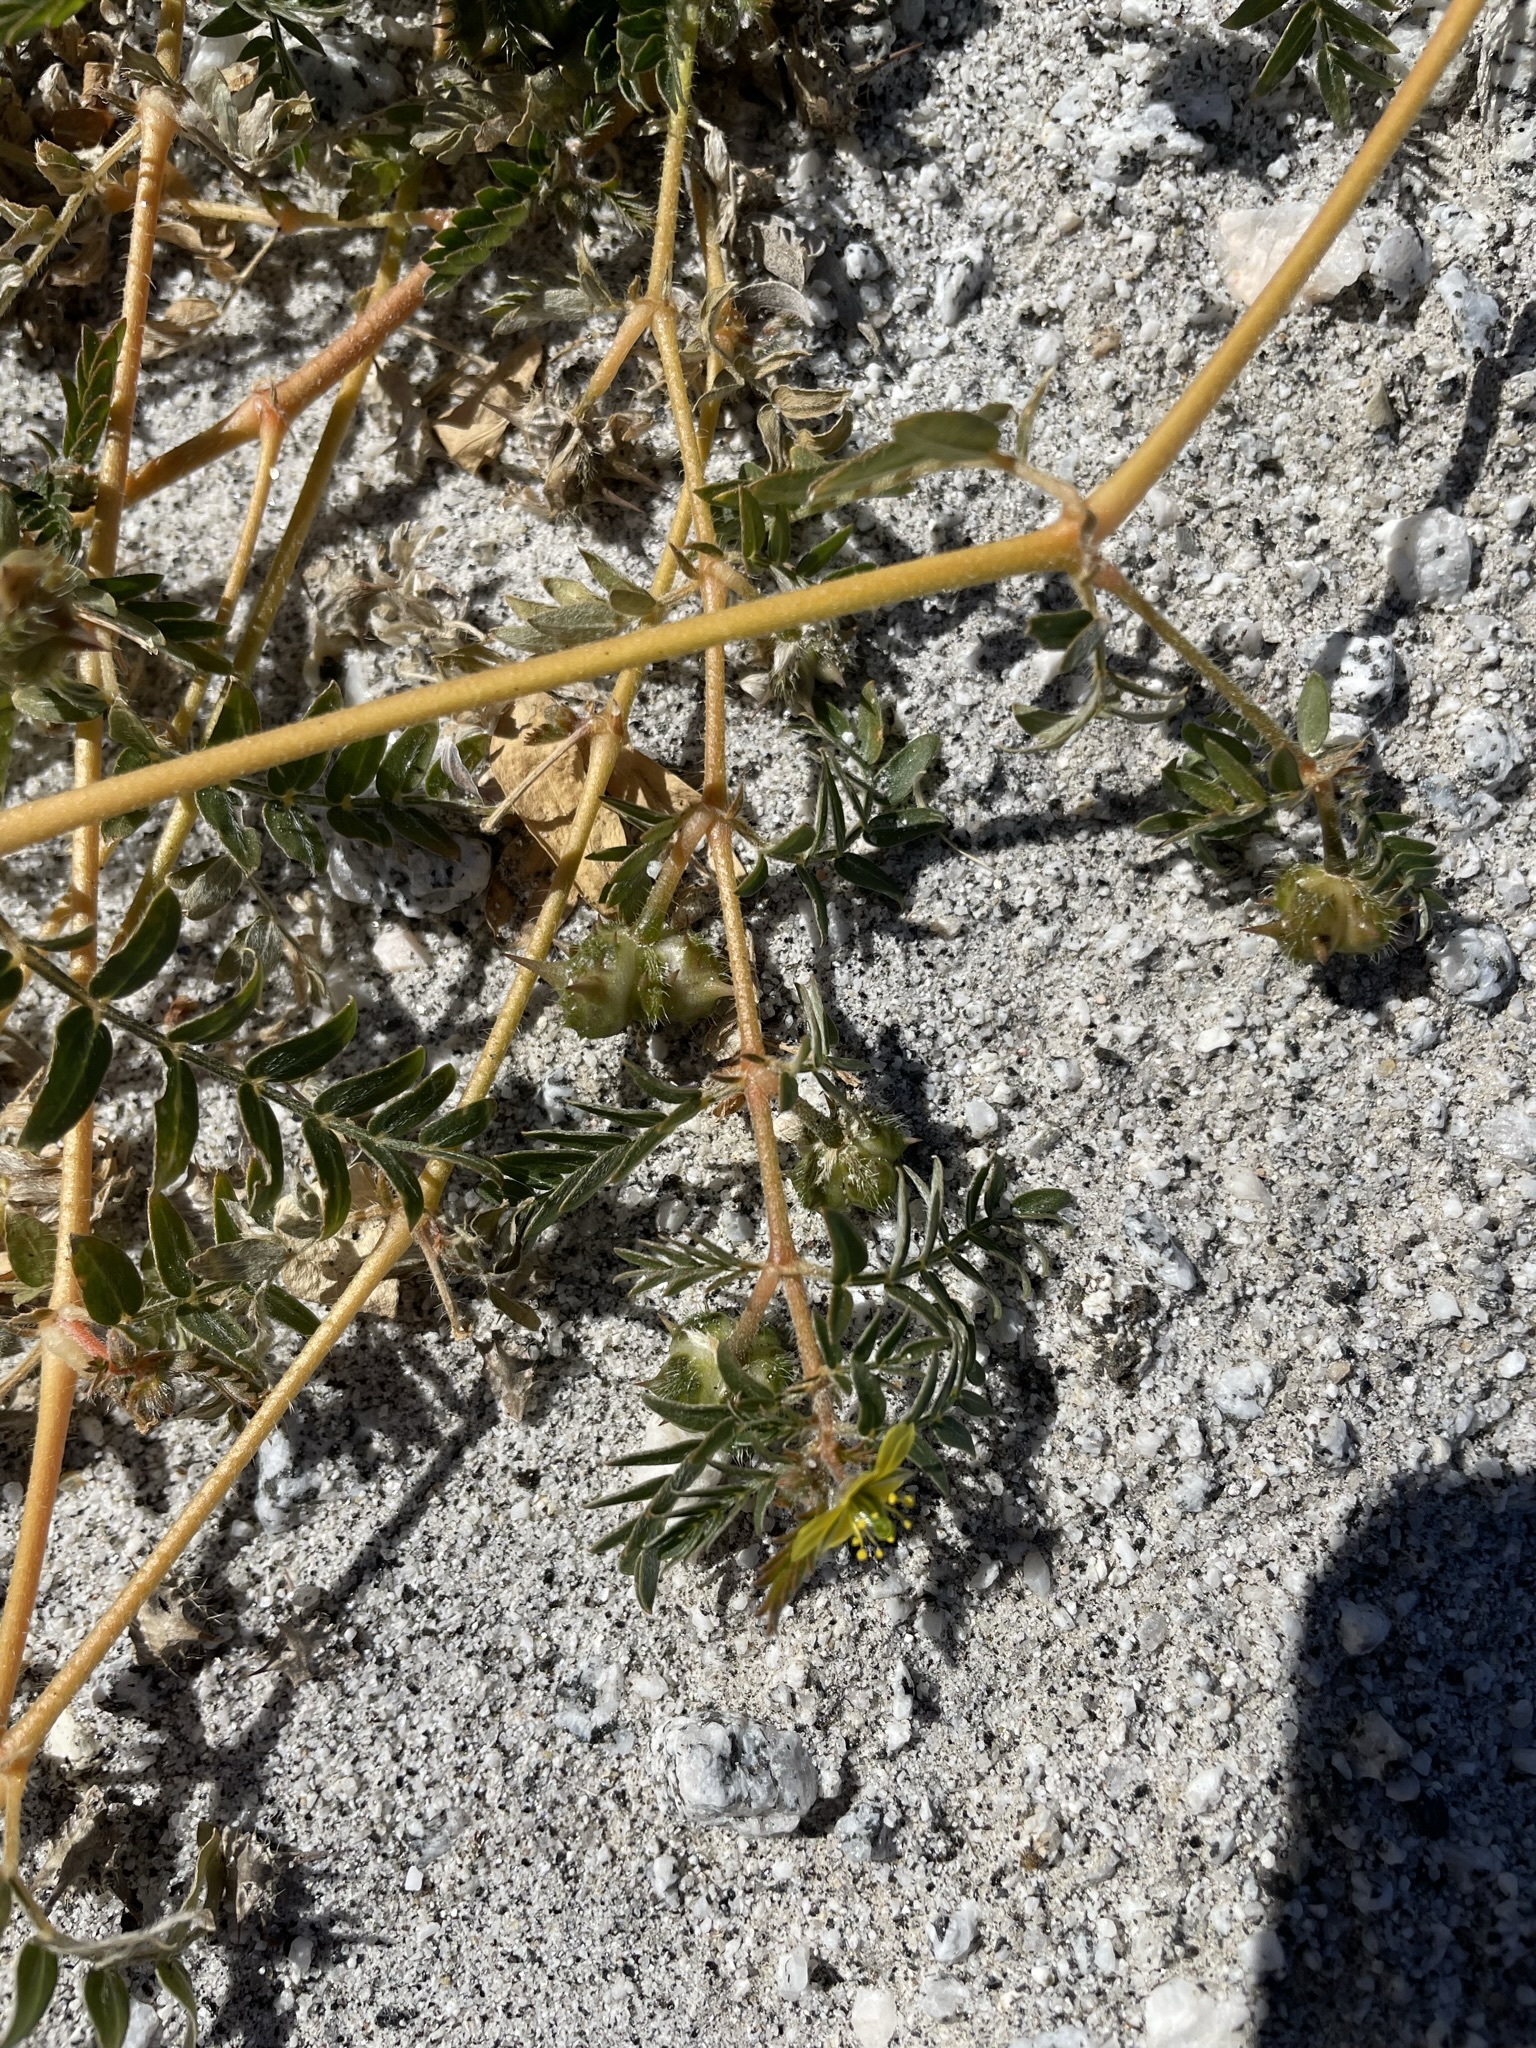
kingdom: Plantae
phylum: Tracheophyta
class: Magnoliopsida
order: Zygophyllales
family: Zygophyllaceae
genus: Tribulus
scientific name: Tribulus terrestris
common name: Puncturevine
